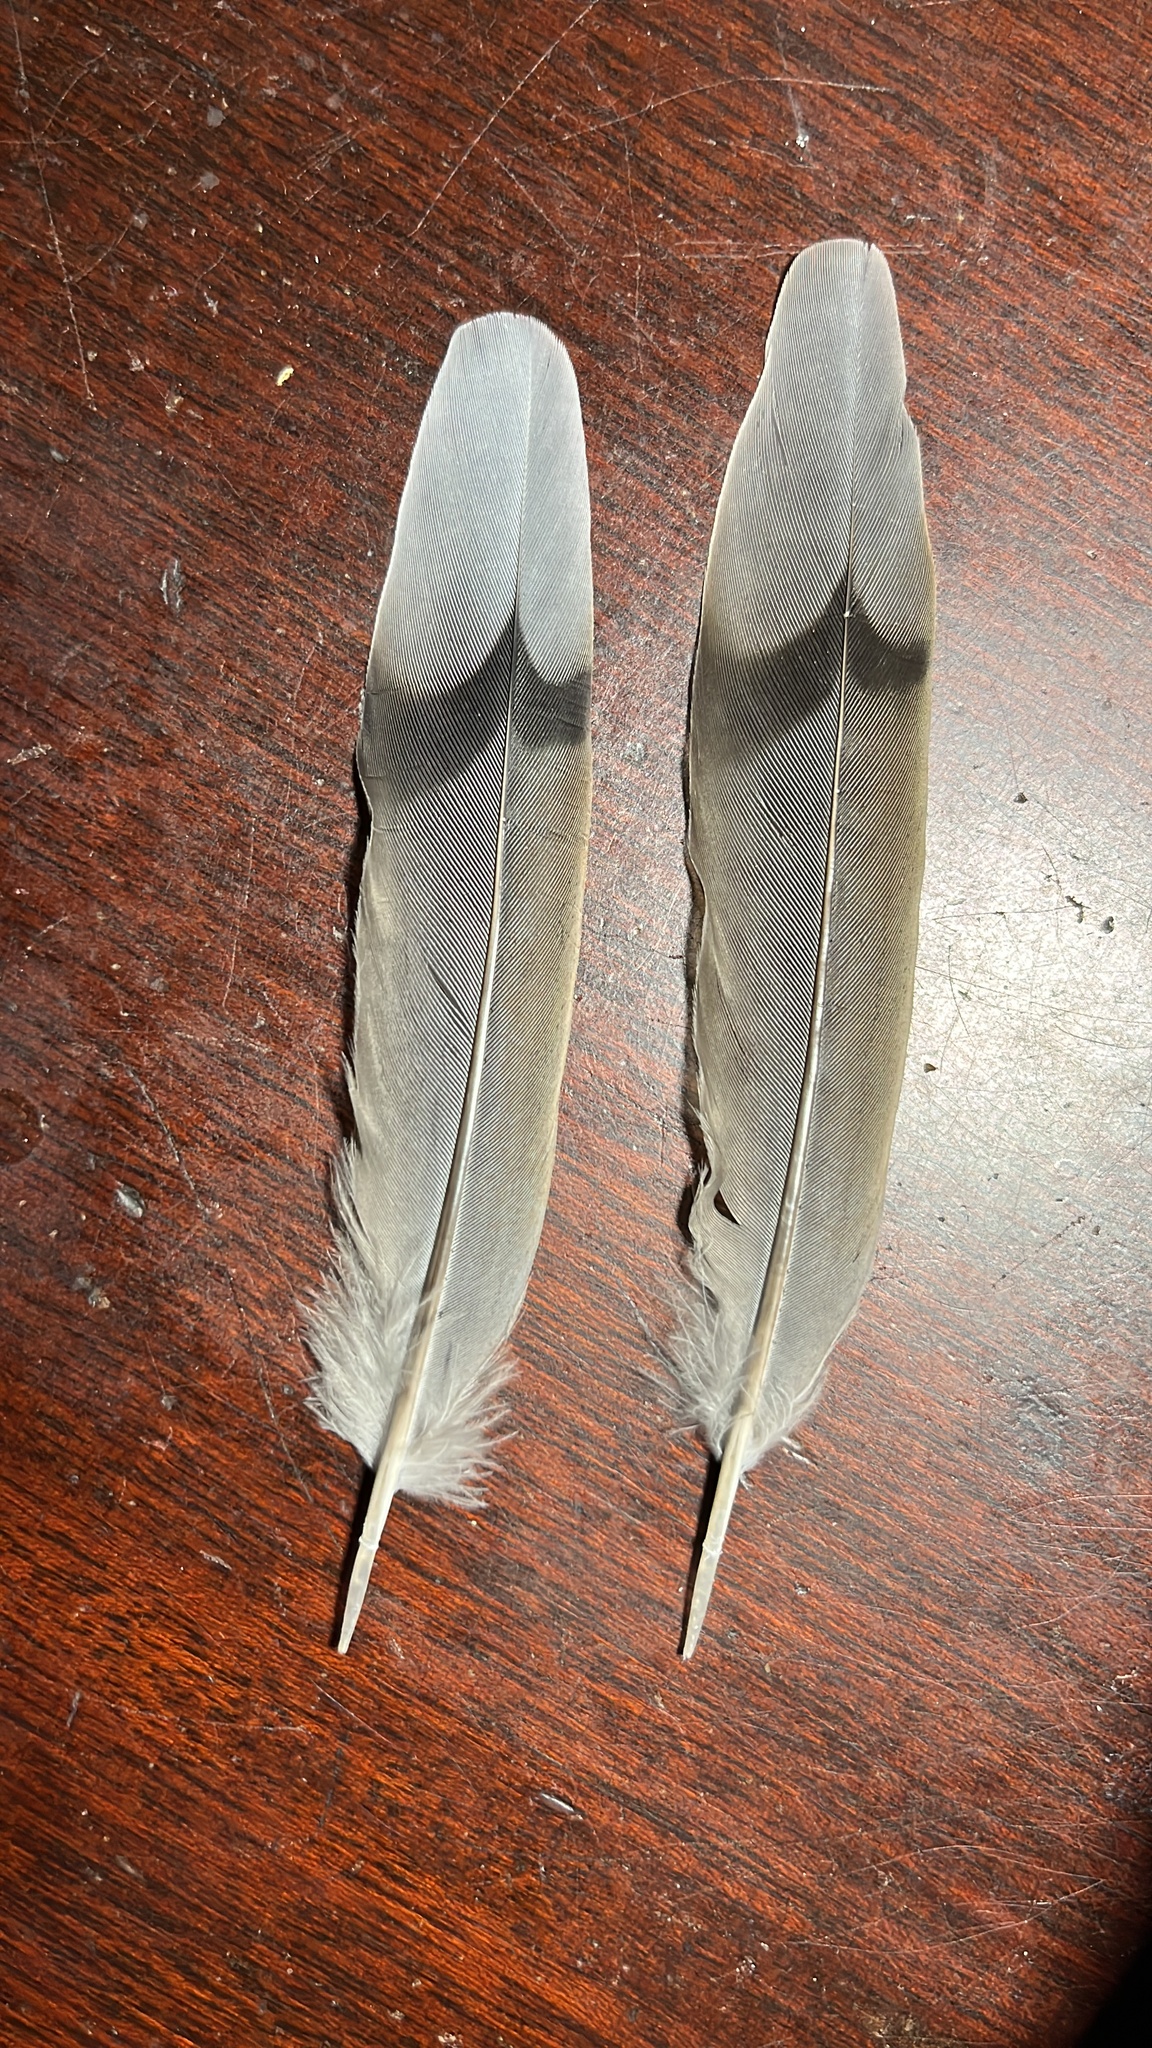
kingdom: Animalia
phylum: Chordata
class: Aves
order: Columbiformes
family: Columbidae
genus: Zenaida
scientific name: Zenaida macroura
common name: Mourning dove
